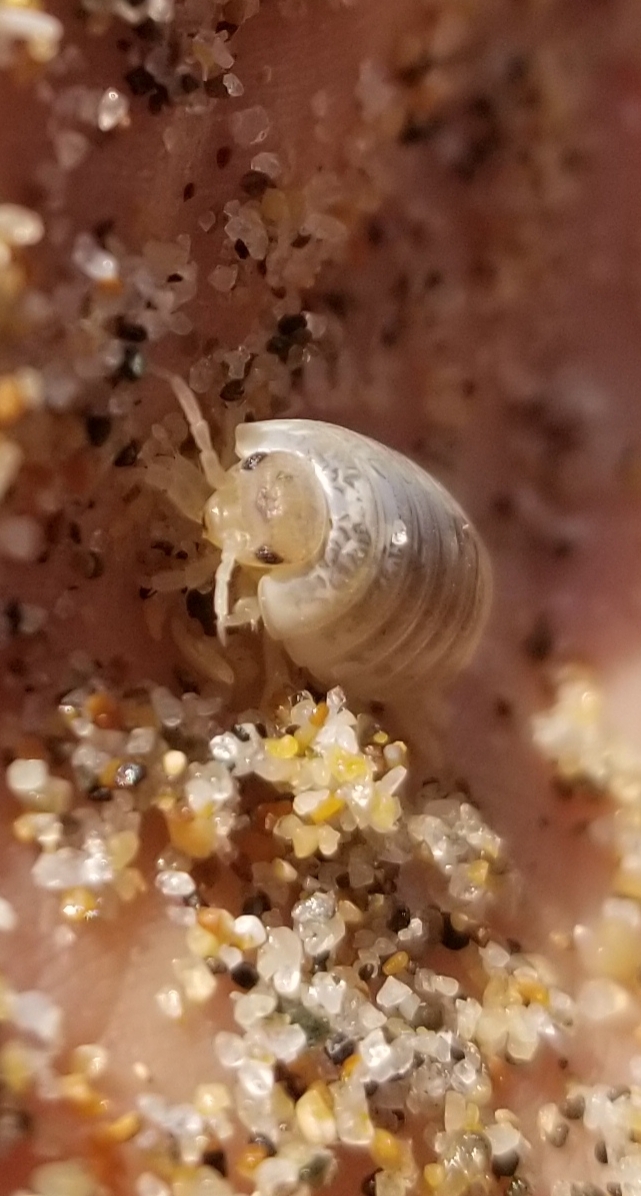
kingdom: Animalia
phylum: Arthropoda
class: Malacostraca
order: Isopoda
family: Alloniscidae
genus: Alloniscus
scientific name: Alloniscus perconvexus
